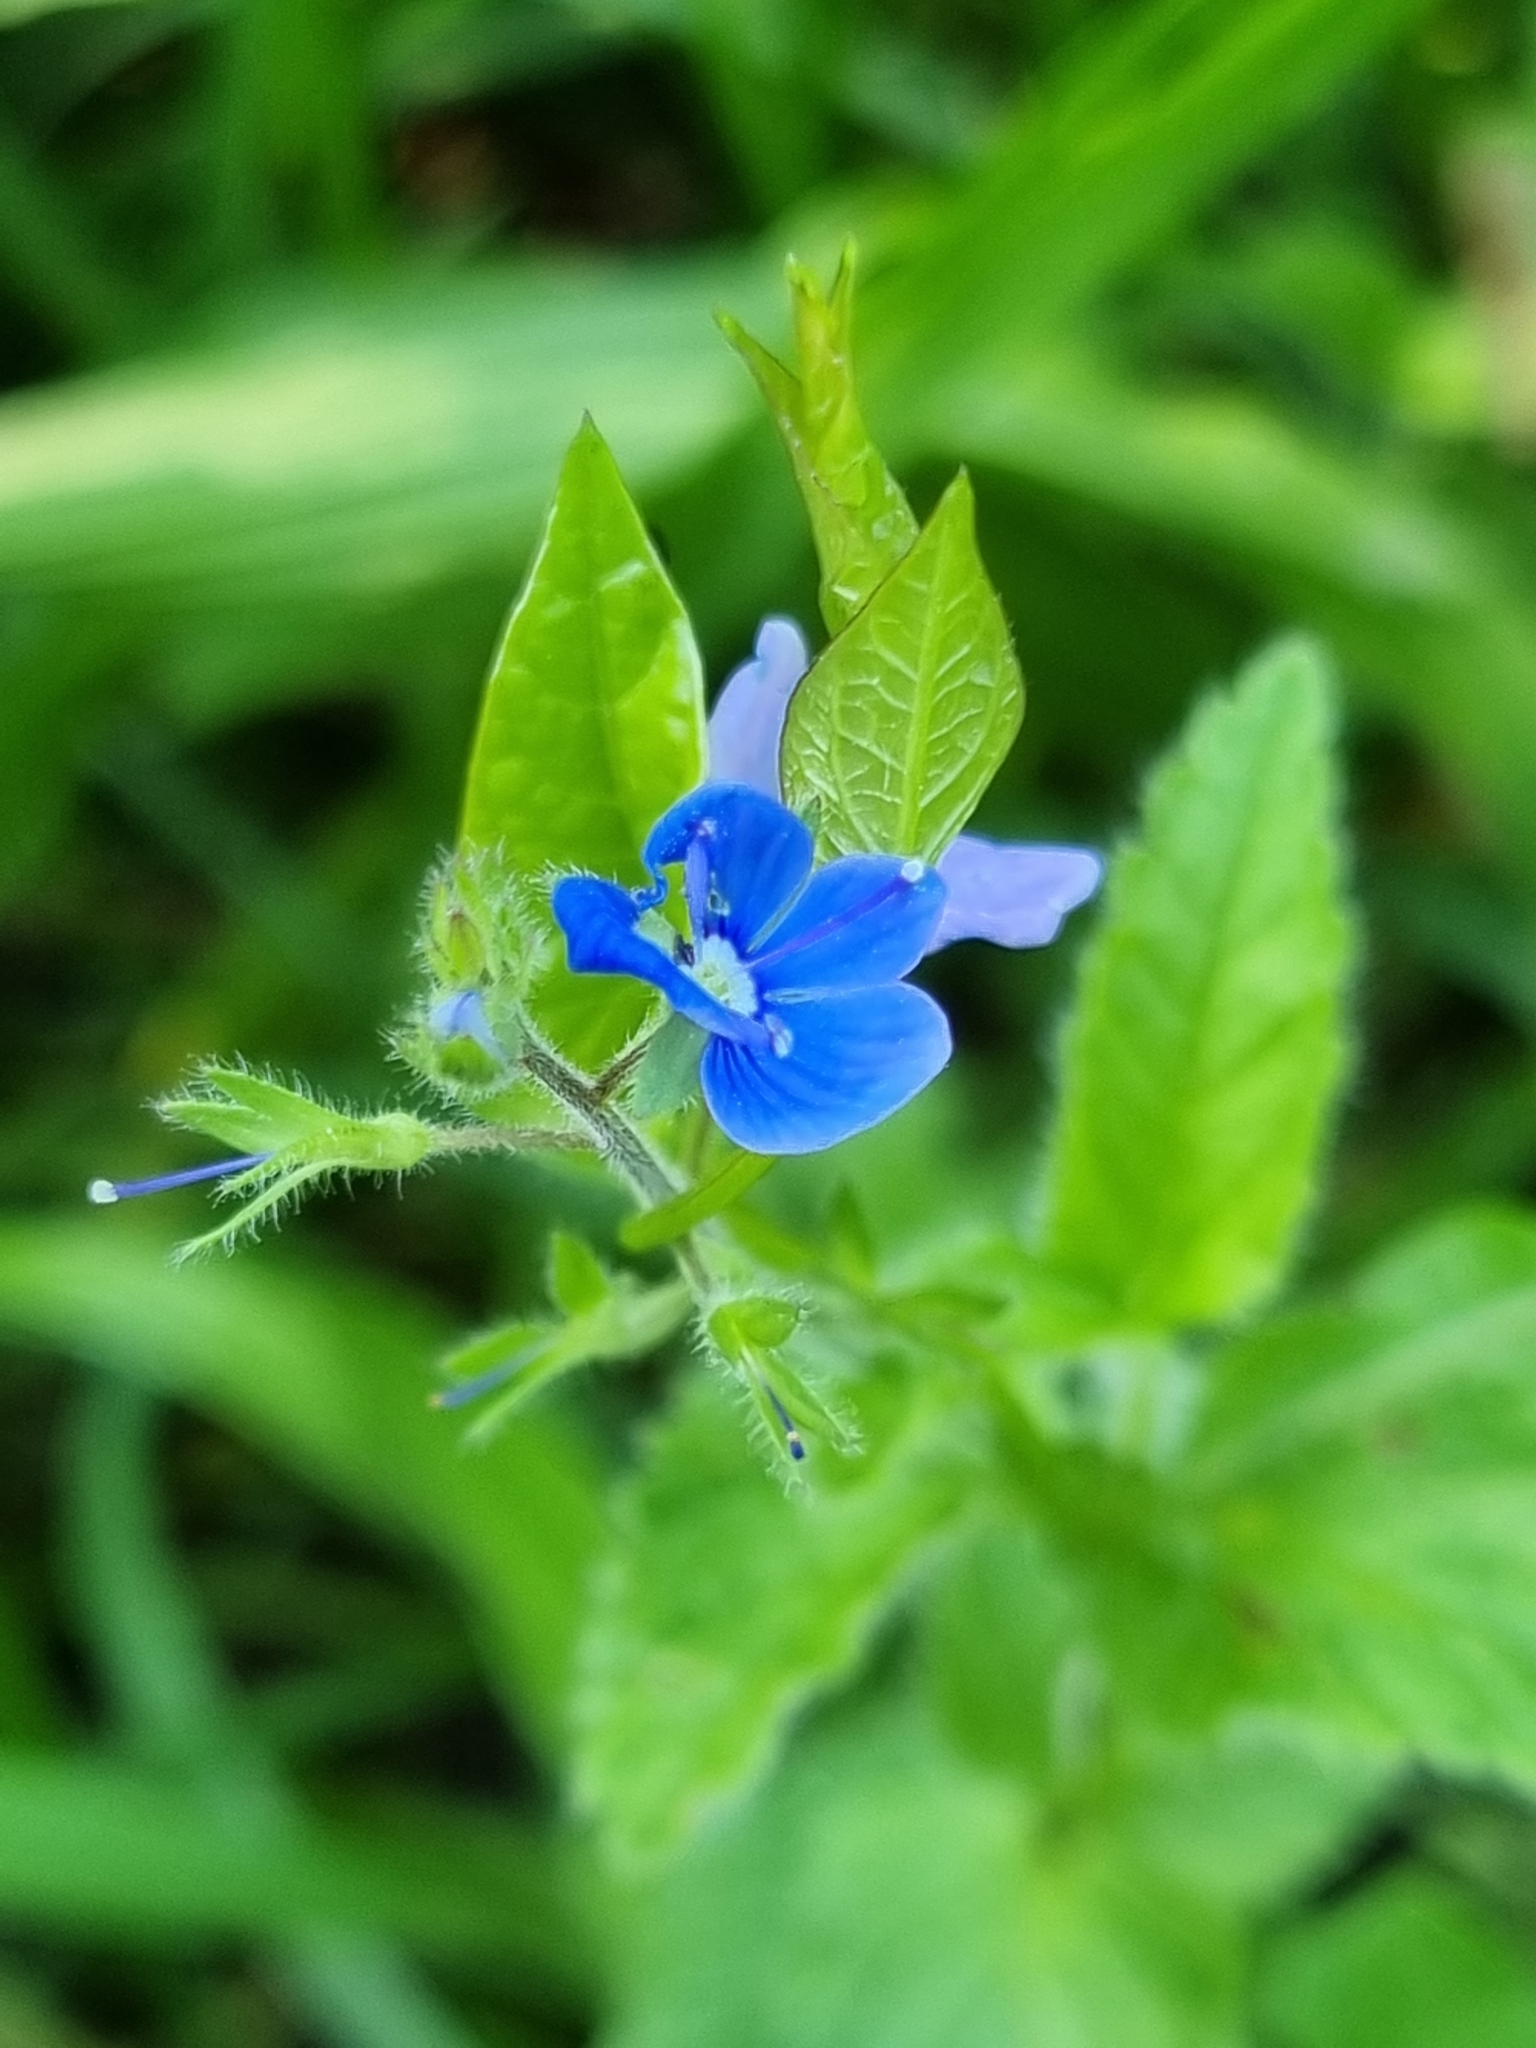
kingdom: Plantae
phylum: Tracheophyta
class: Magnoliopsida
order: Lamiales
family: Plantaginaceae
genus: Veronica
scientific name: Veronica chamaedrys
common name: Germander speedwell
